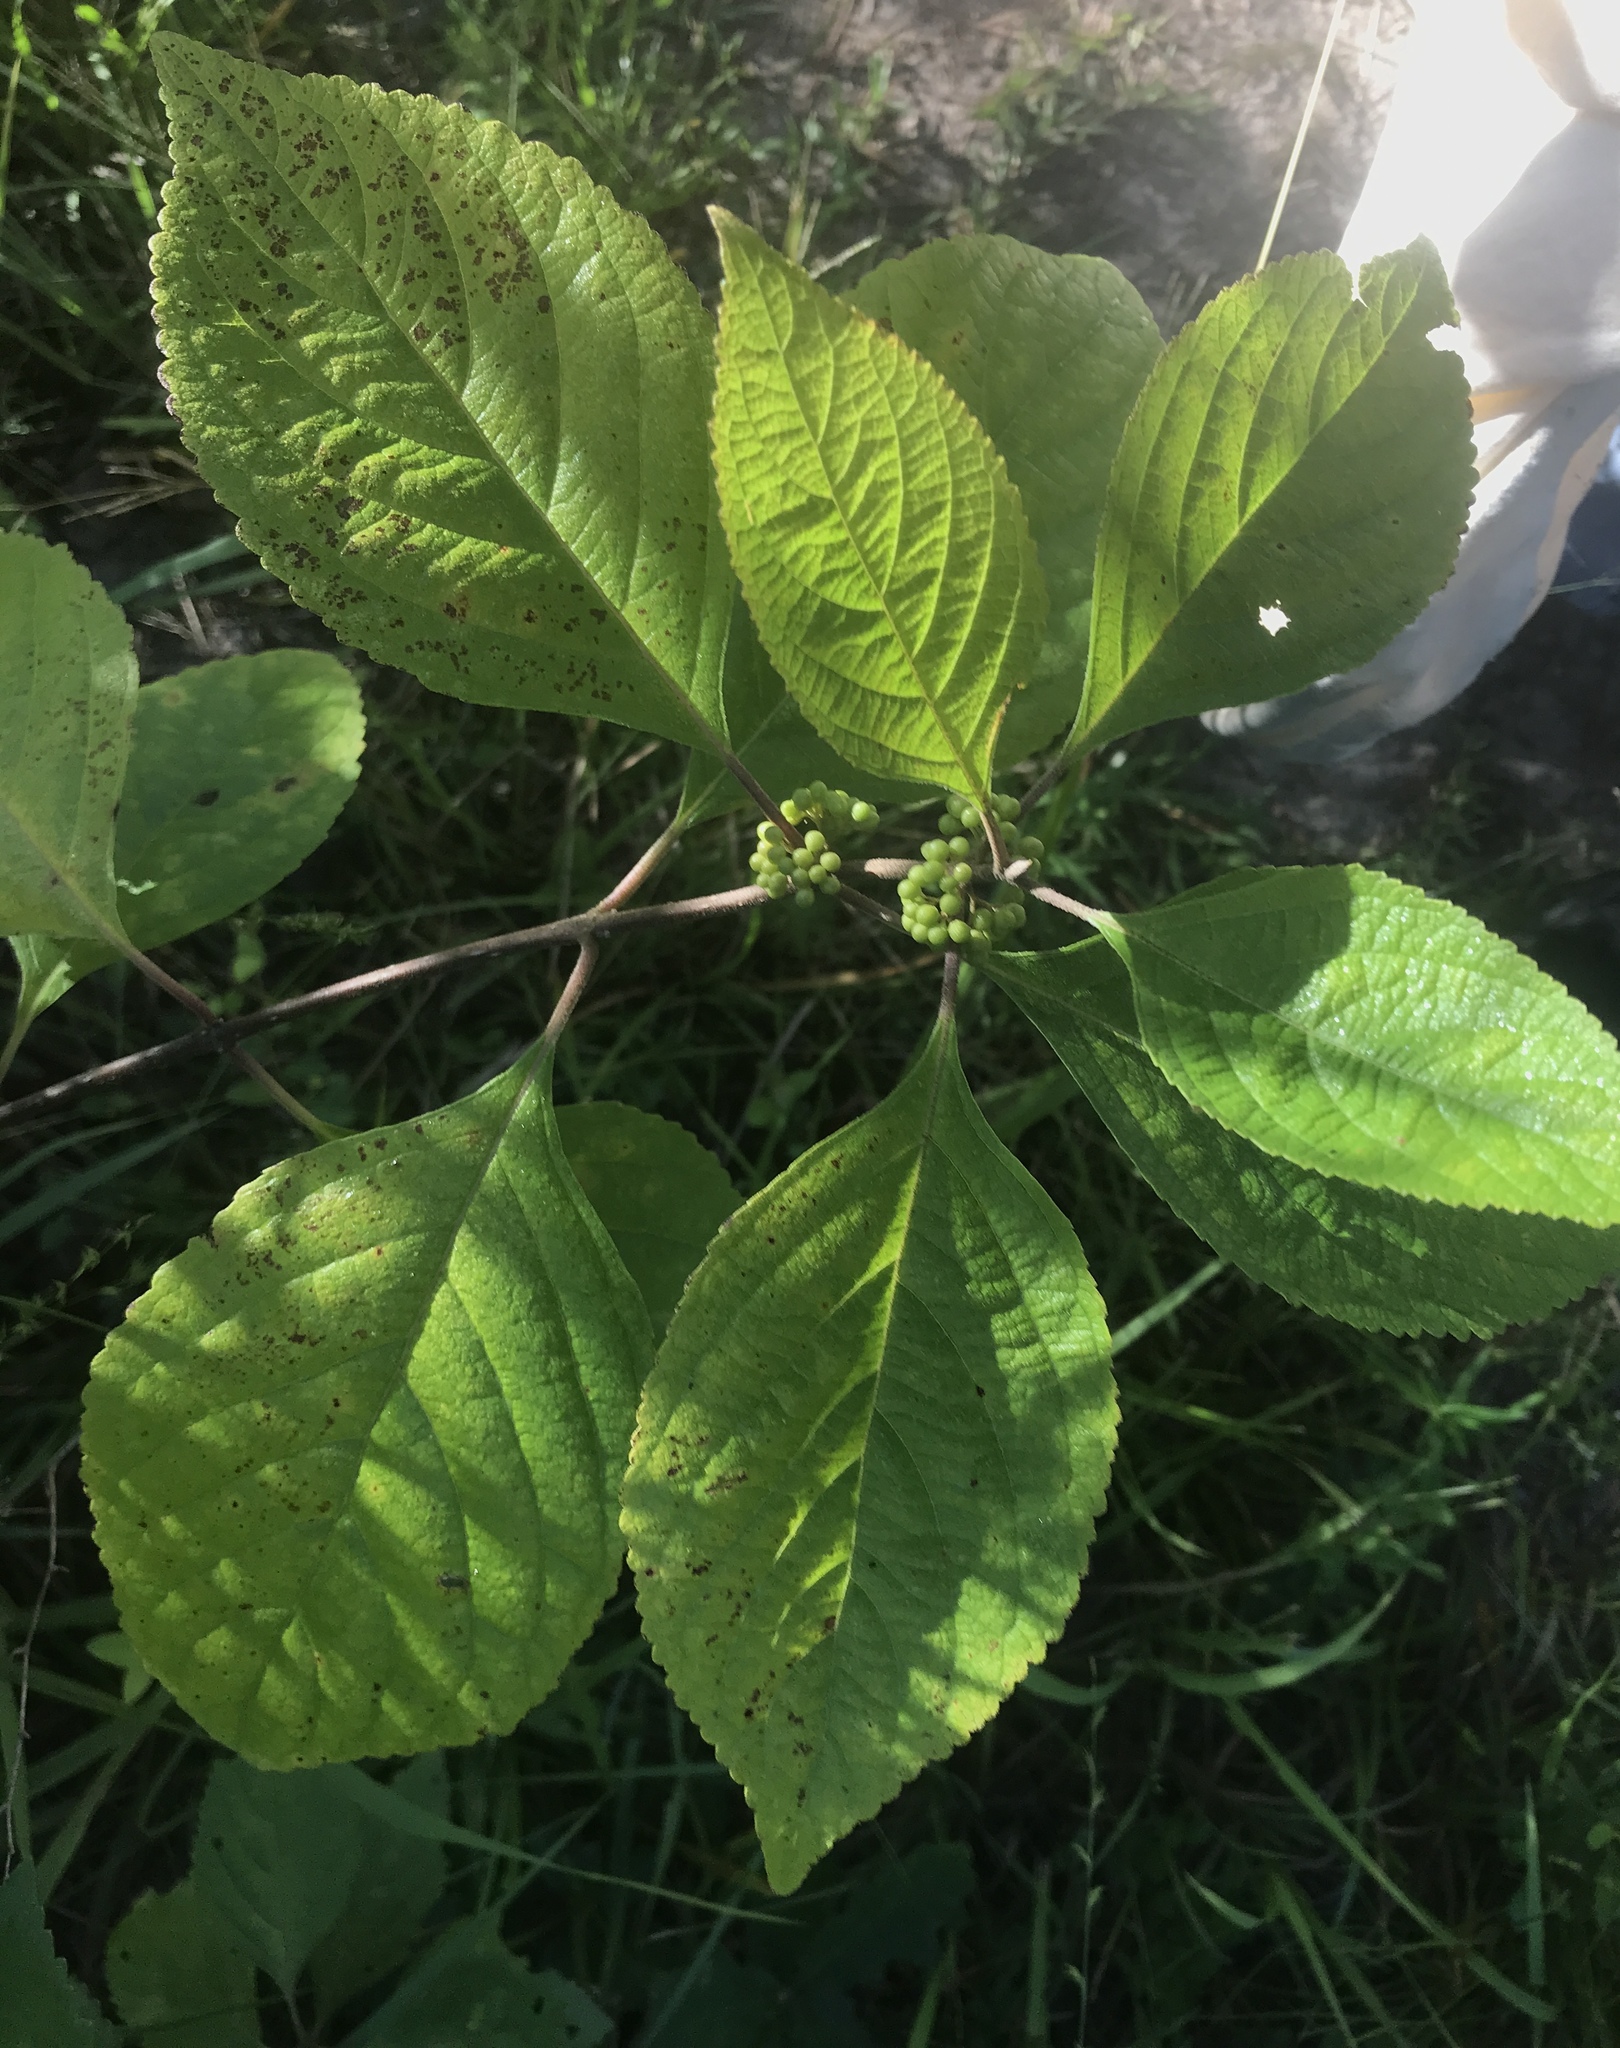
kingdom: Plantae
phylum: Tracheophyta
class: Magnoliopsida
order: Lamiales
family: Lamiaceae
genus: Callicarpa
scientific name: Callicarpa americana
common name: American beautyberry
